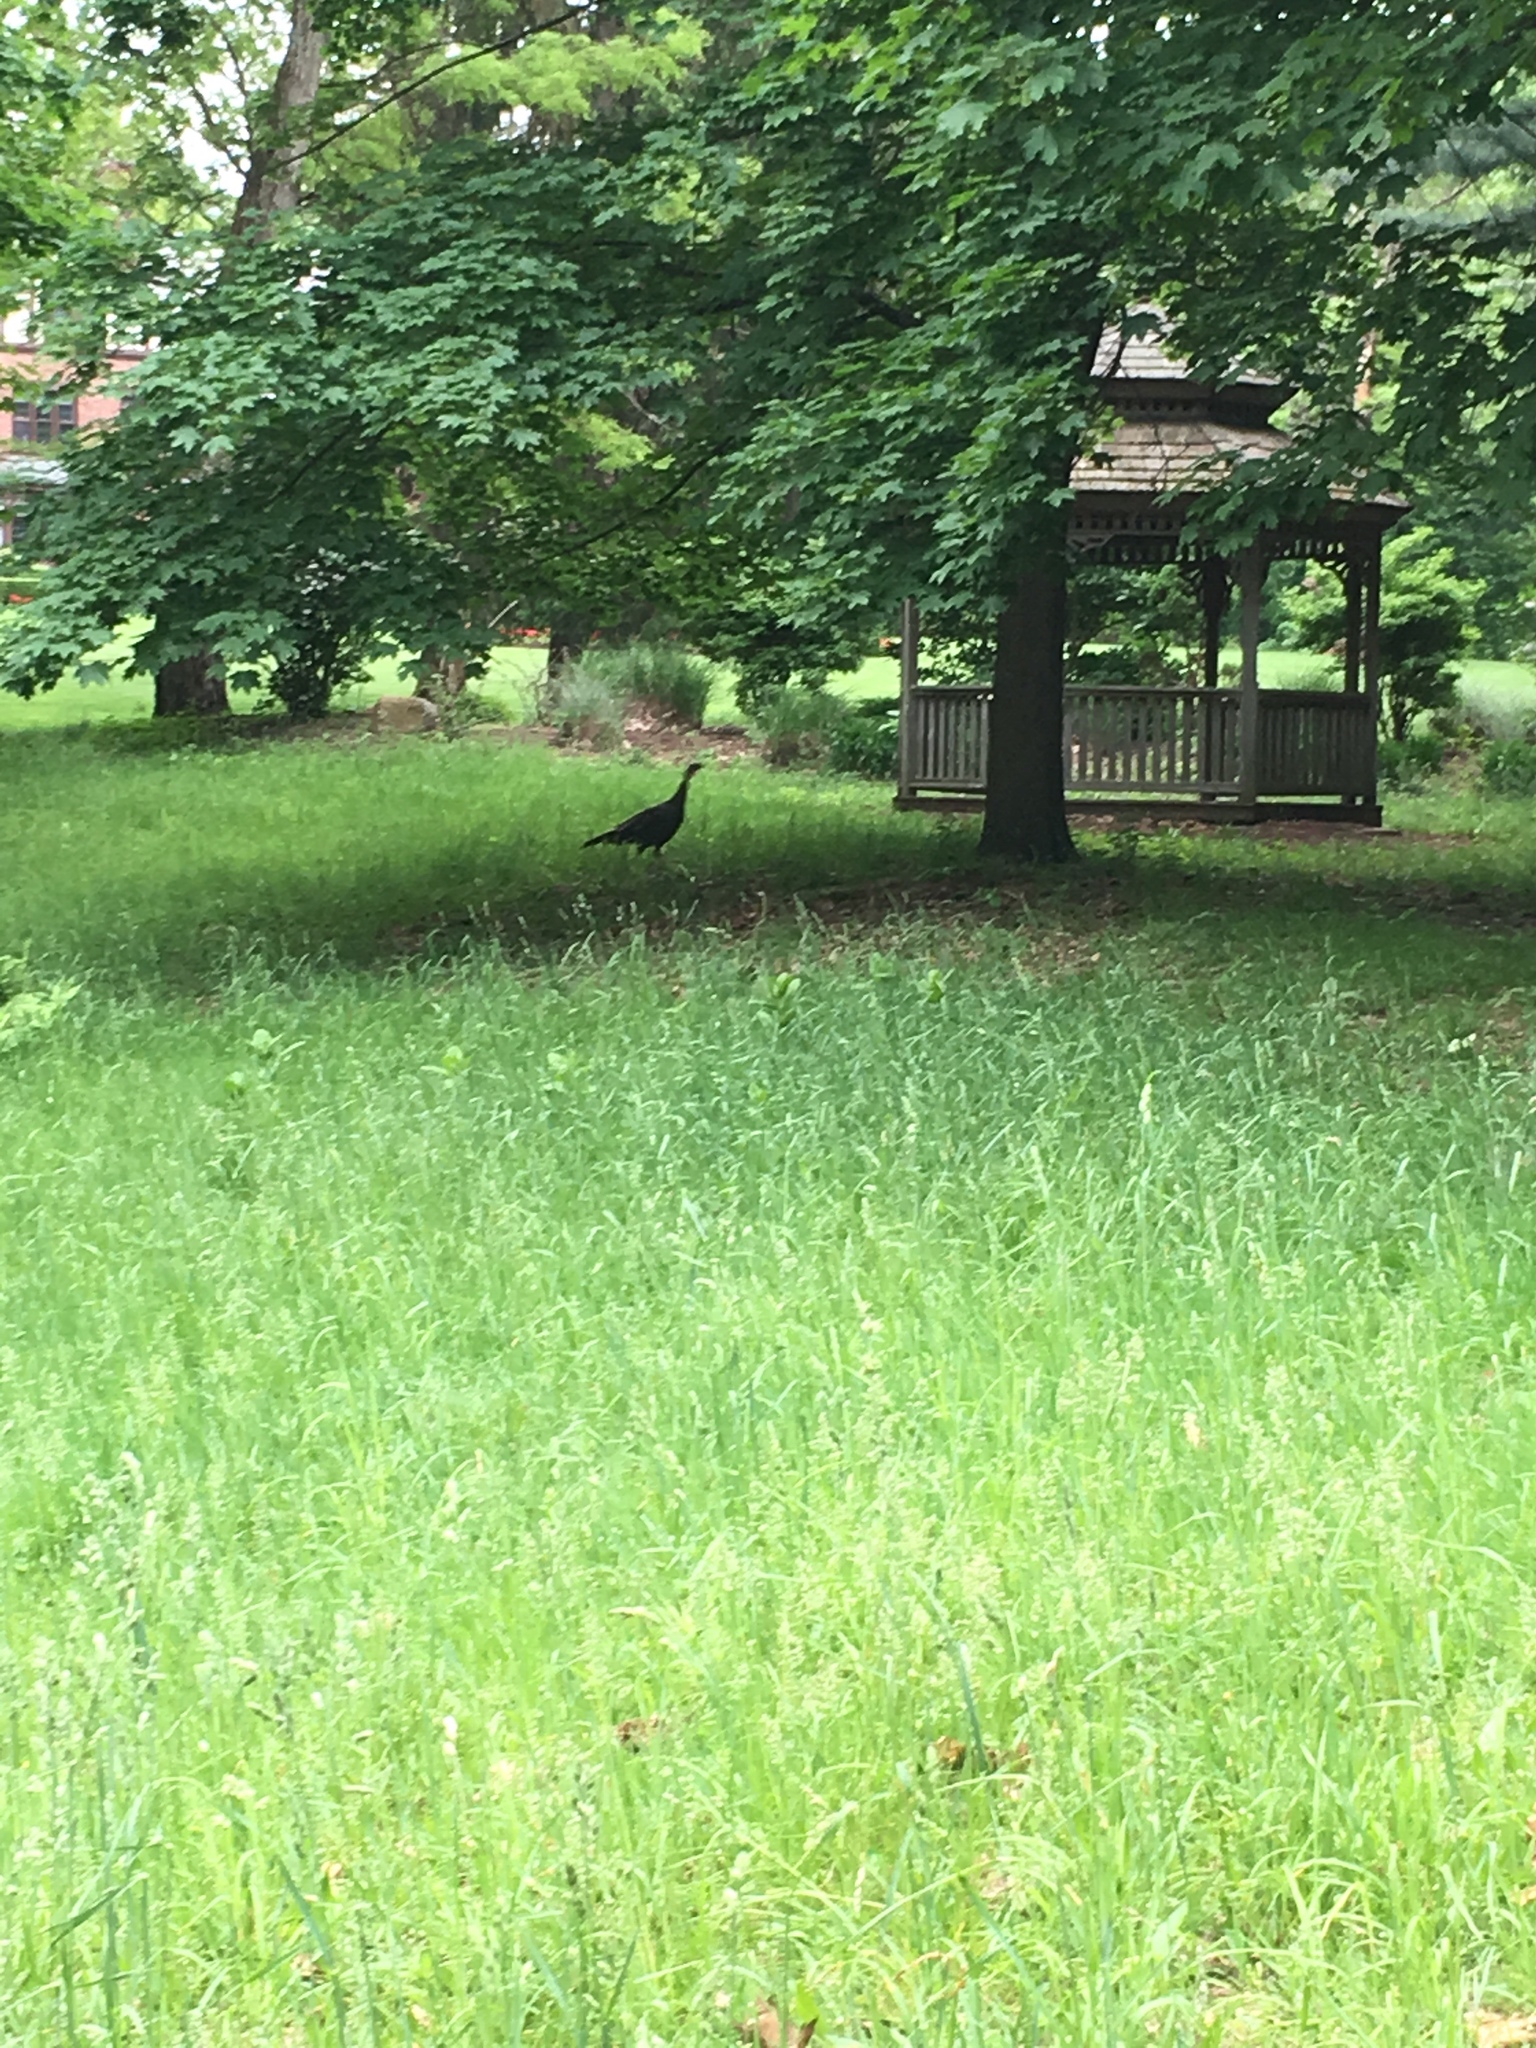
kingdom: Animalia
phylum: Chordata
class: Aves
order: Galliformes
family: Phasianidae
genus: Meleagris
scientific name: Meleagris gallopavo
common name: Wild turkey
